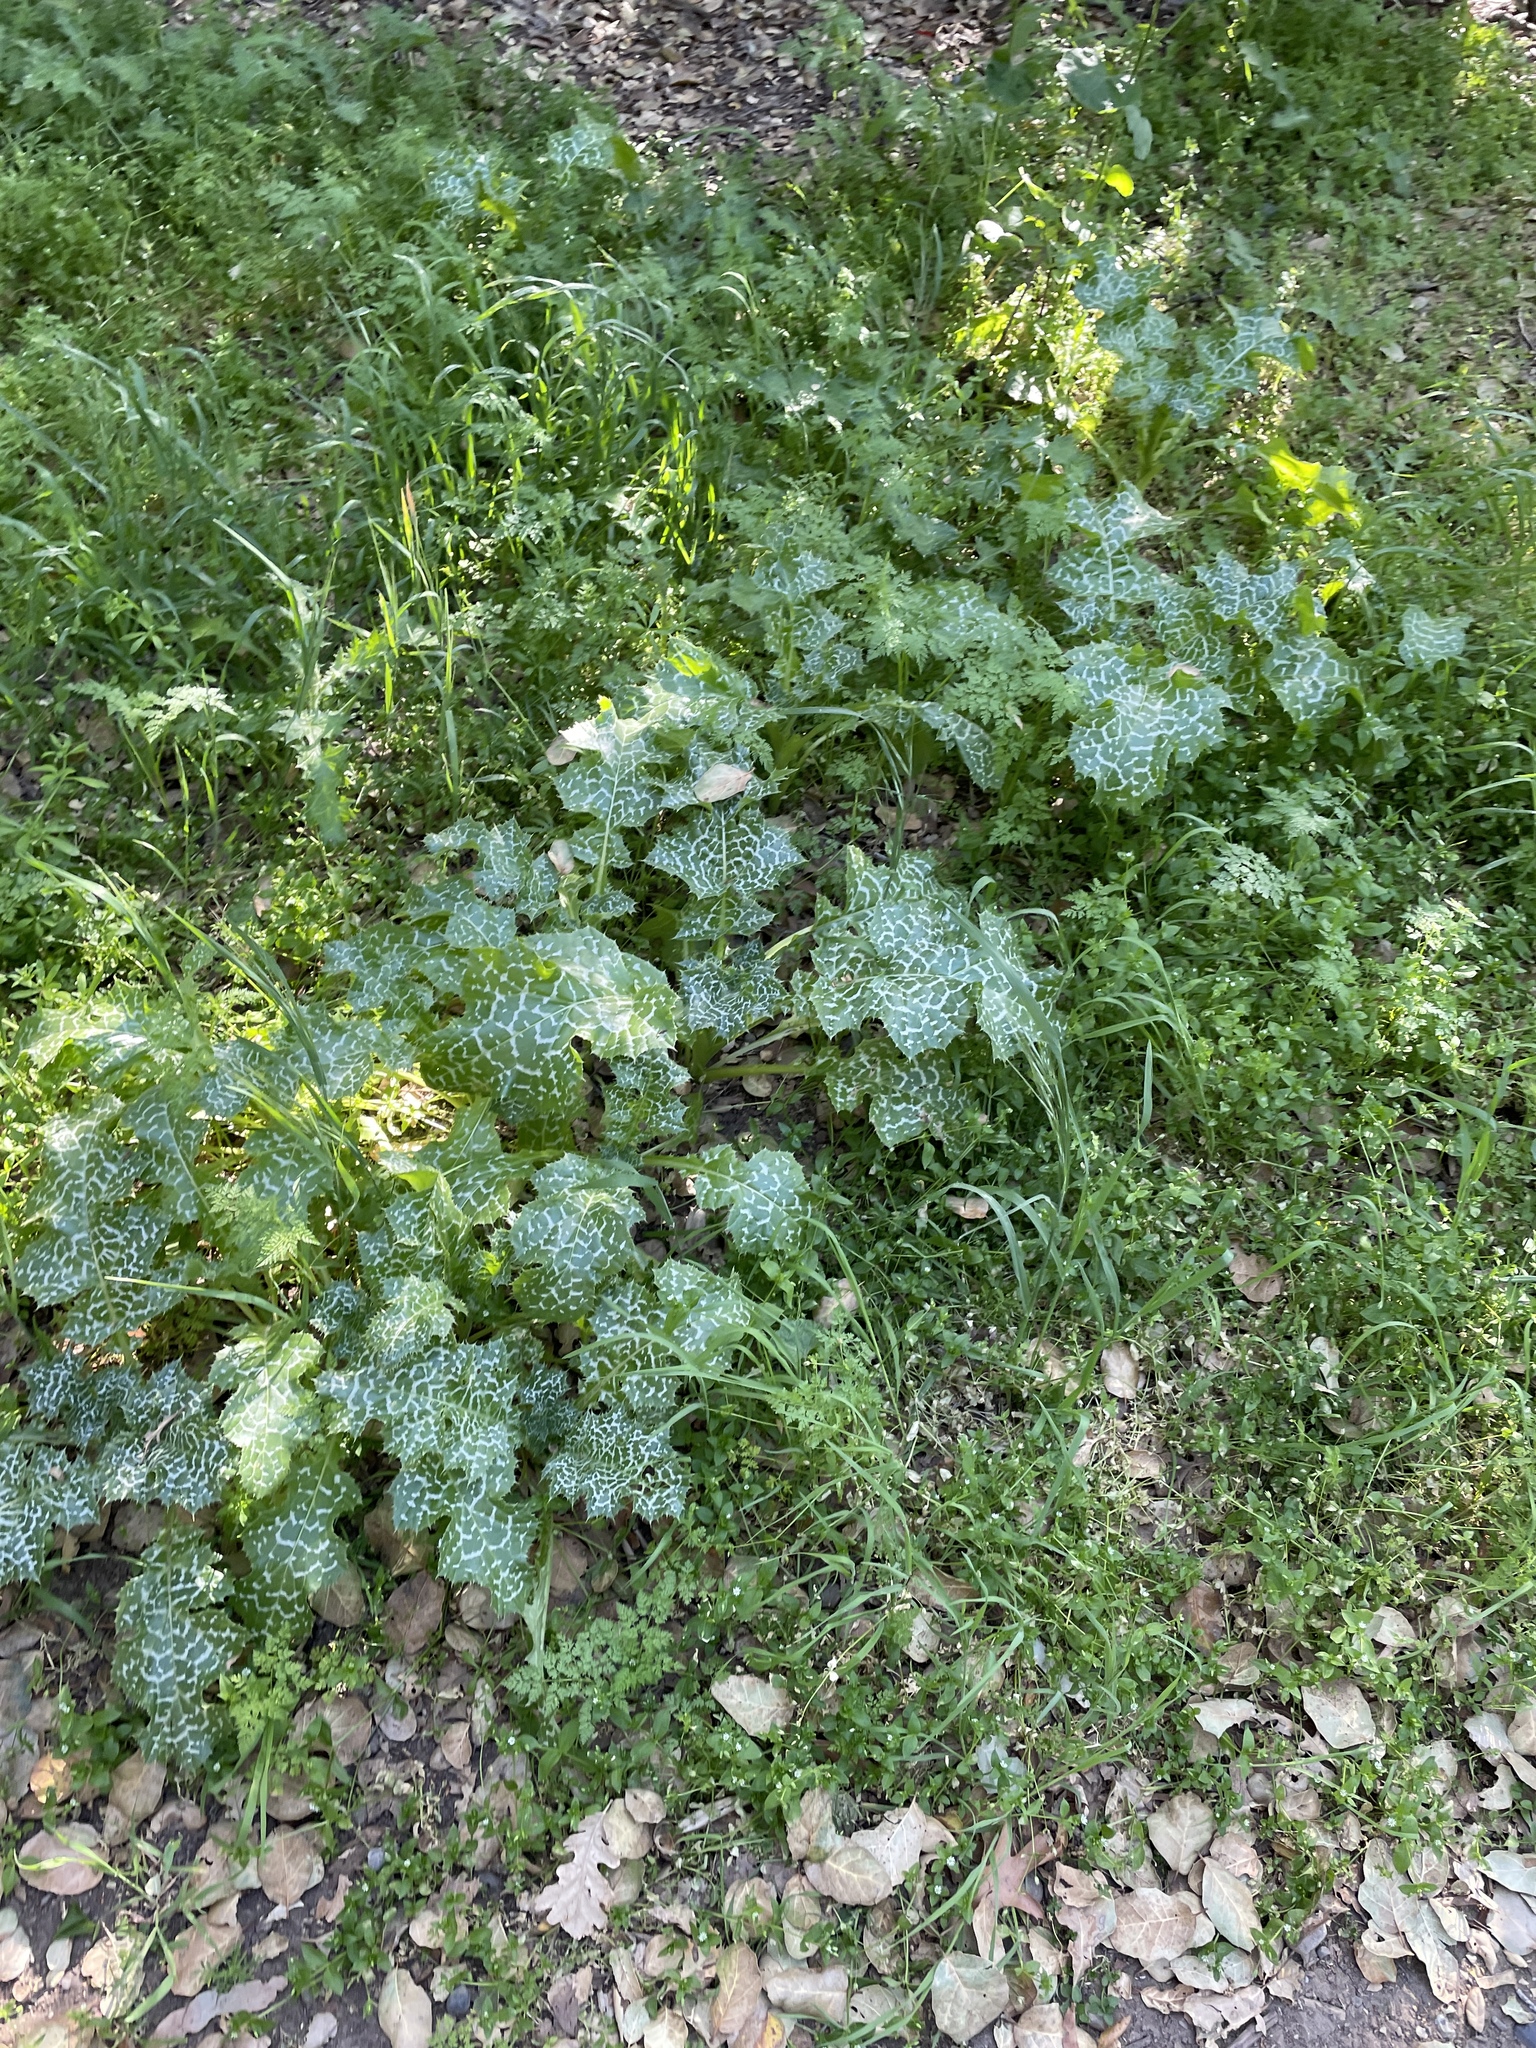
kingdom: Plantae
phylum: Tracheophyta
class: Magnoliopsida
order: Asterales
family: Asteraceae
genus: Silybum
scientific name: Silybum marianum
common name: Milk thistle
